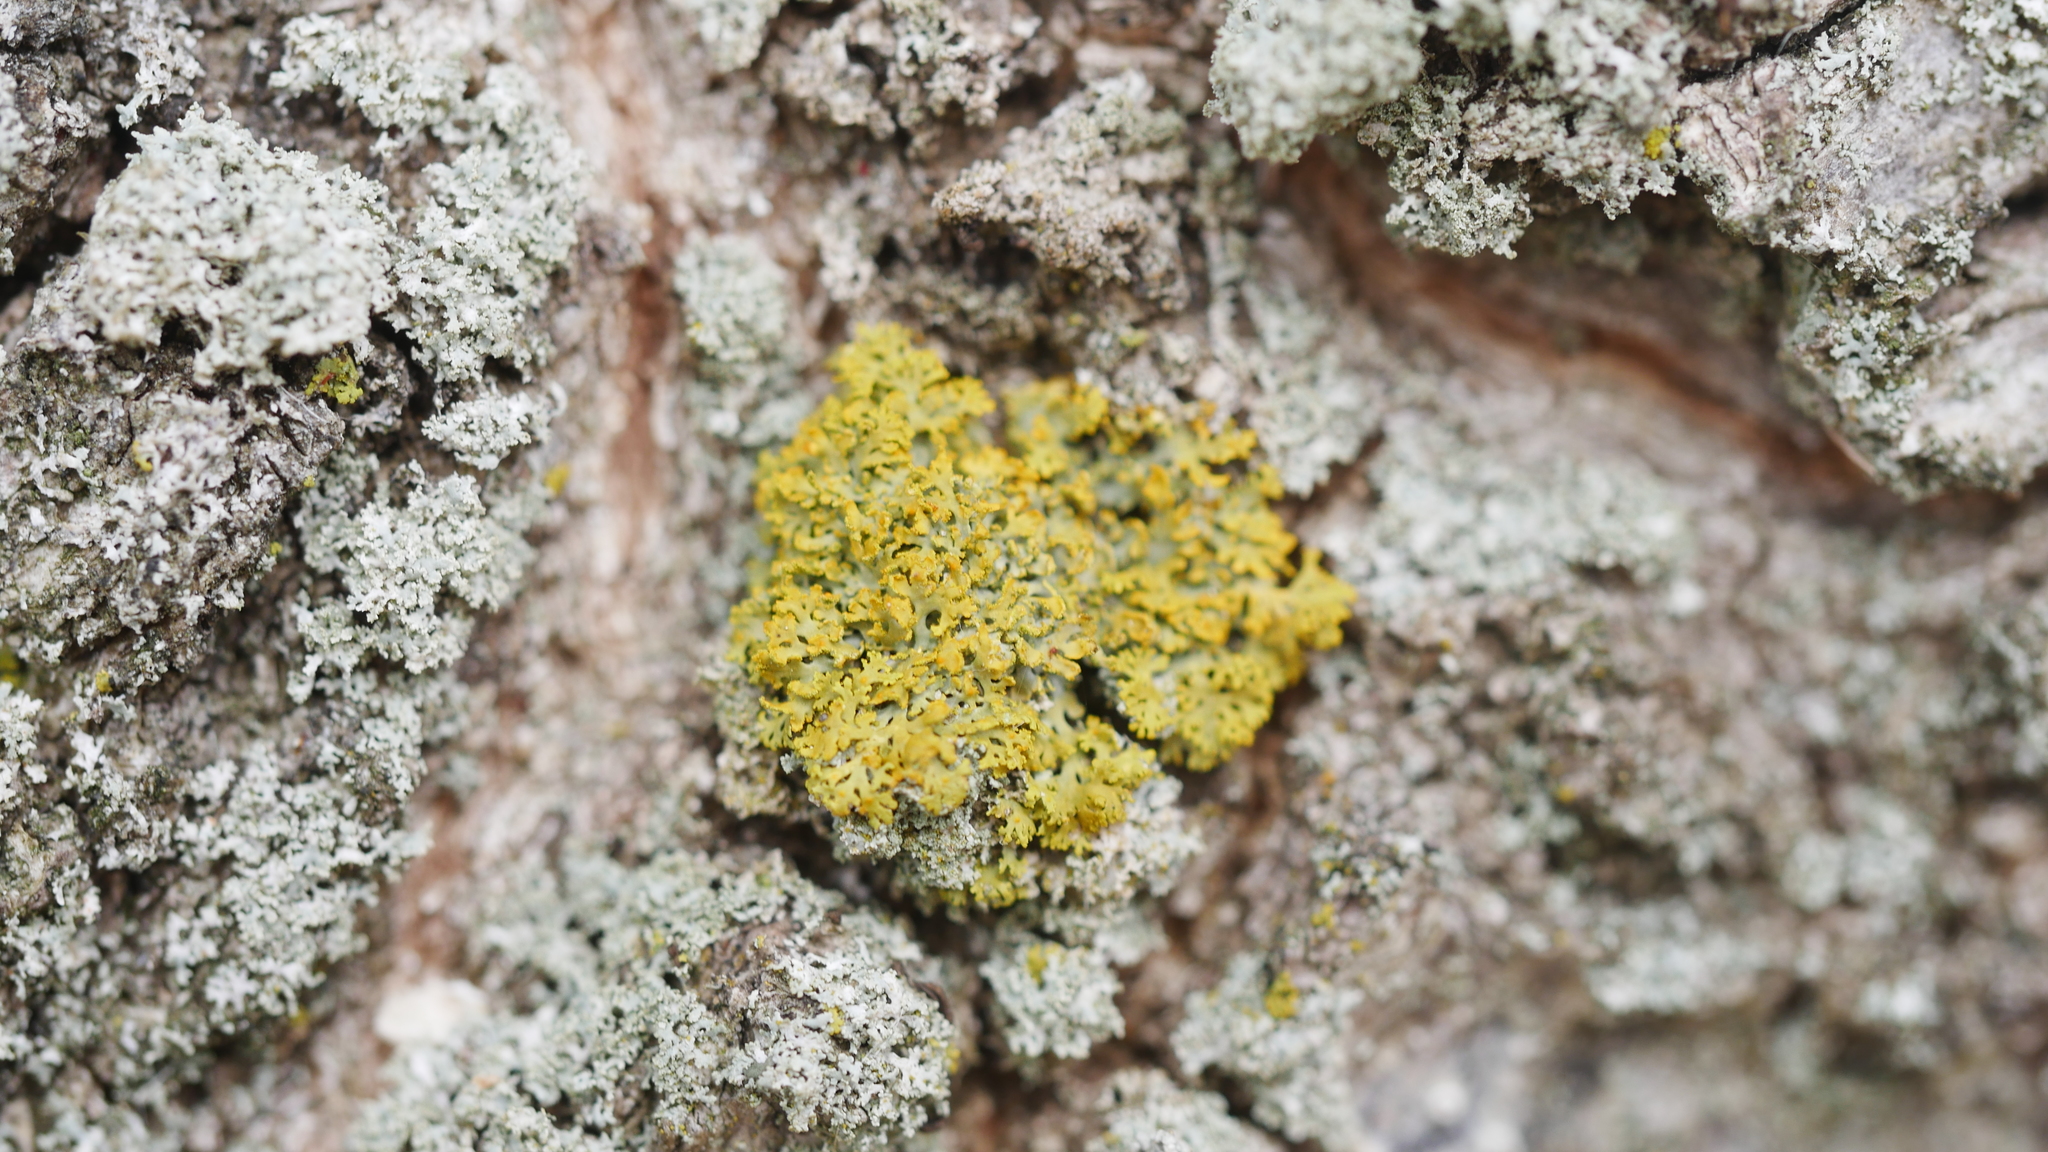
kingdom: Fungi
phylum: Ascomycota
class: Candelariomycetes
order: Candelariales
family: Candelariaceae
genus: Candelaria
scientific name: Candelaria concolor
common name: Candleflame lichen
